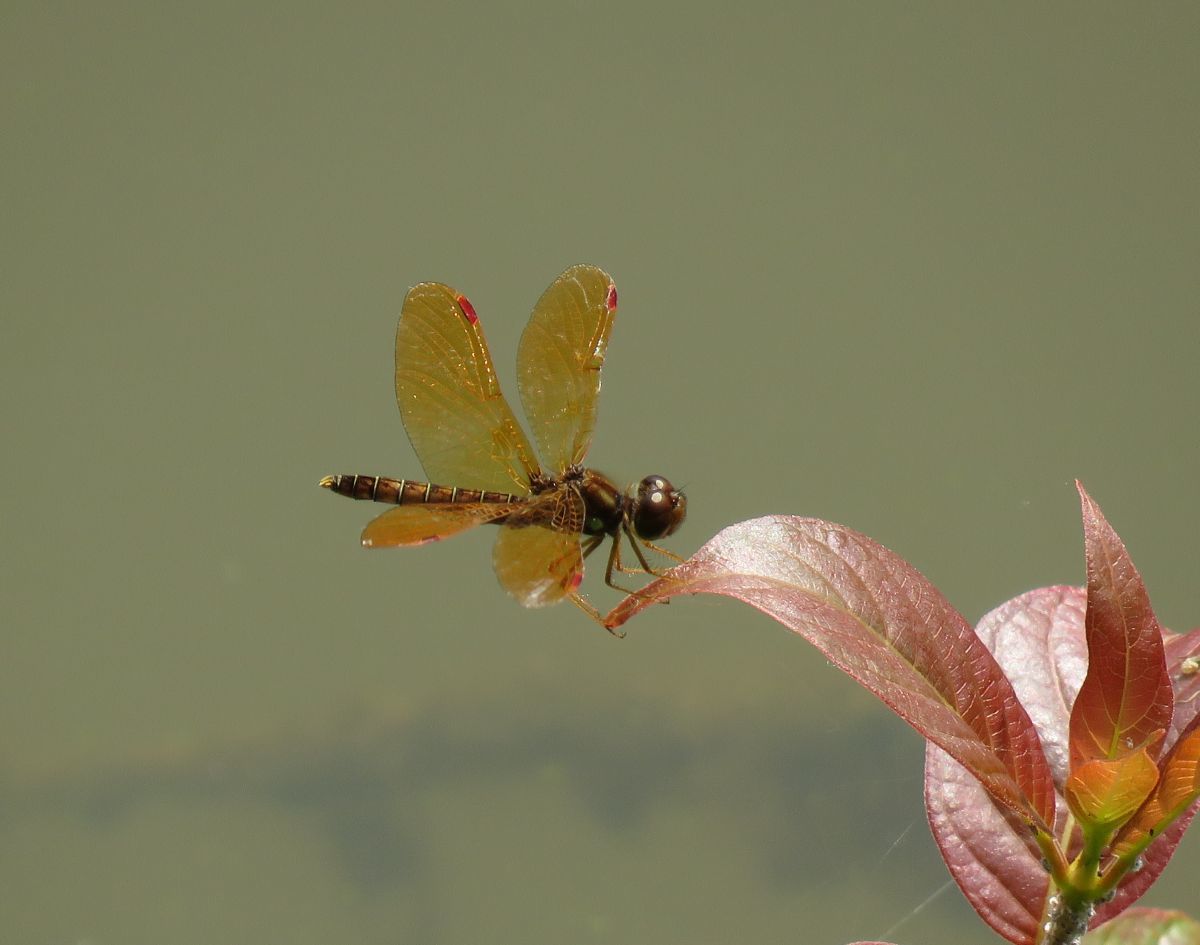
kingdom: Animalia
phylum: Arthropoda
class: Insecta
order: Odonata
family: Libellulidae
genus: Perithemis
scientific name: Perithemis tenera
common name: Eastern amberwing
